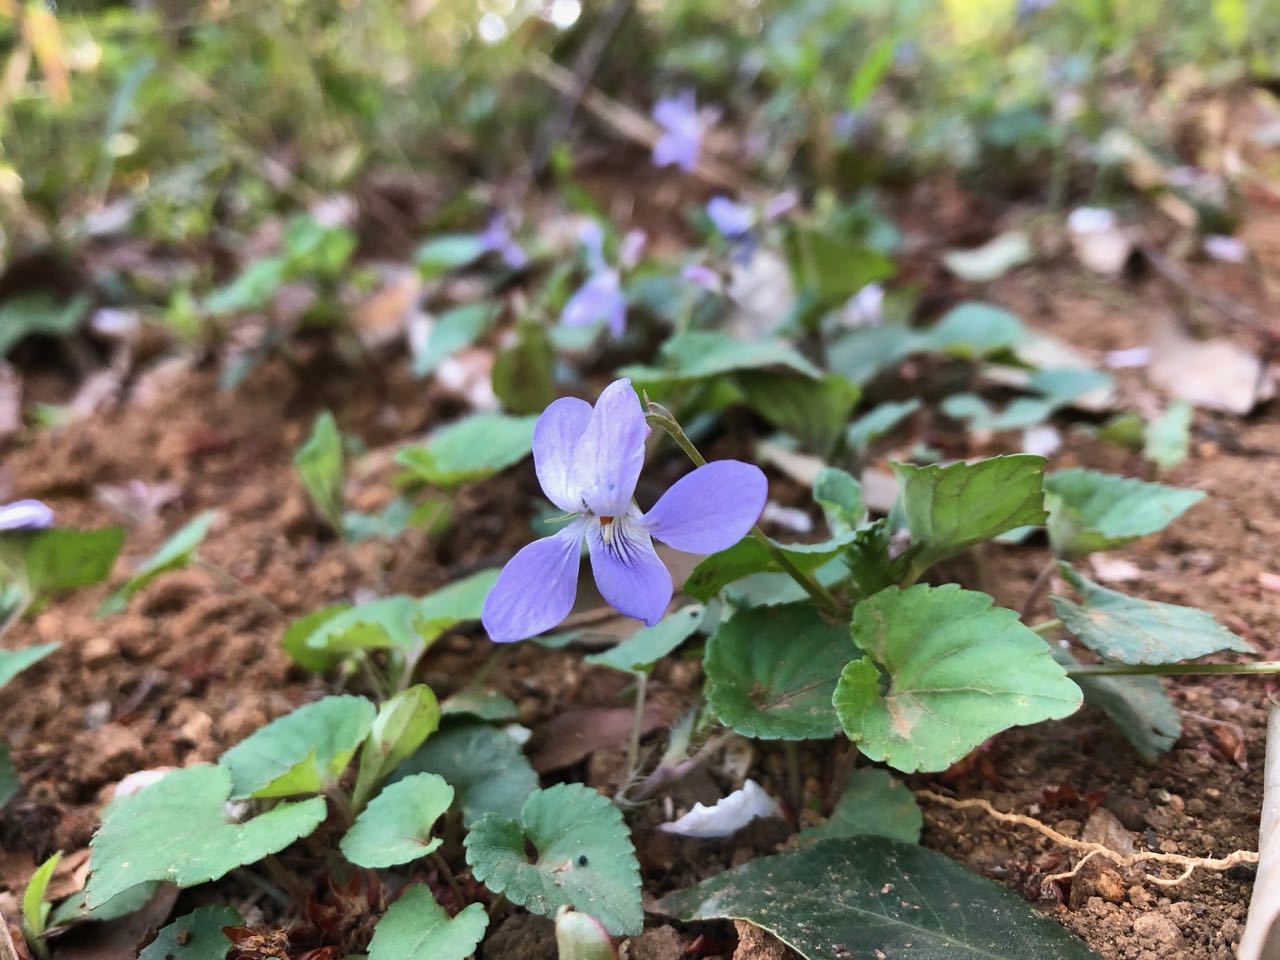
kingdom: Plantae
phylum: Tracheophyta
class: Magnoliopsida
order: Malpighiales
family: Violaceae
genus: Viola
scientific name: Viola grypoceras
